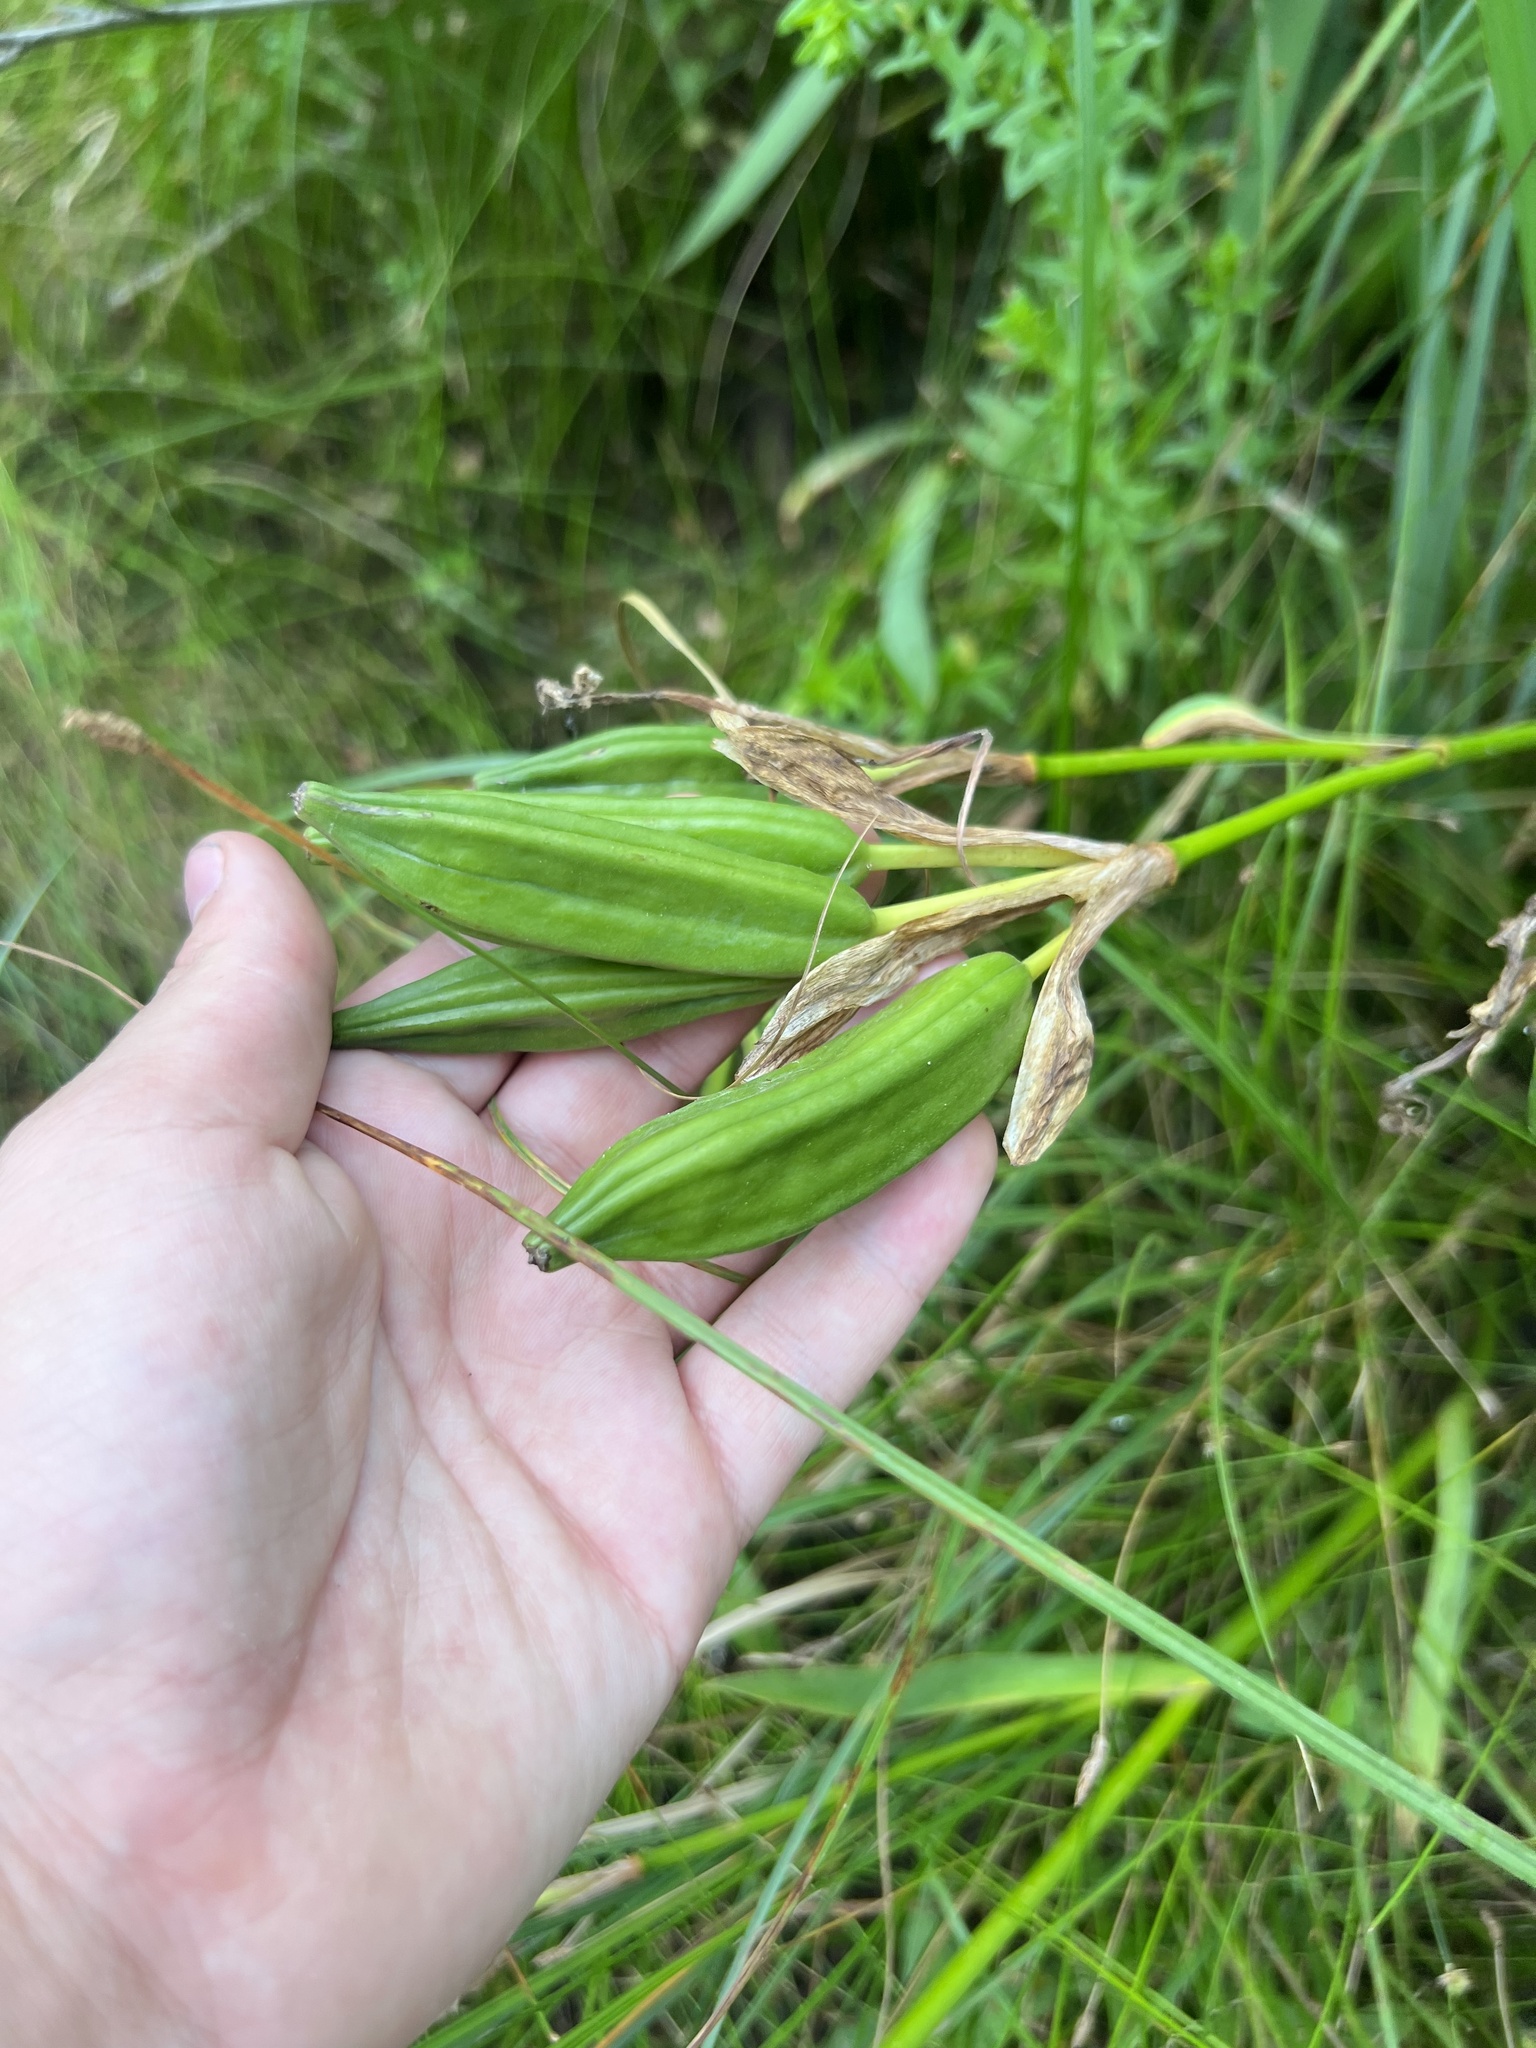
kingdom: Plantae
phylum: Tracheophyta
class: Liliopsida
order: Asparagales
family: Iridaceae
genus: Iris
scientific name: Iris pseudacorus
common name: Yellow flag
